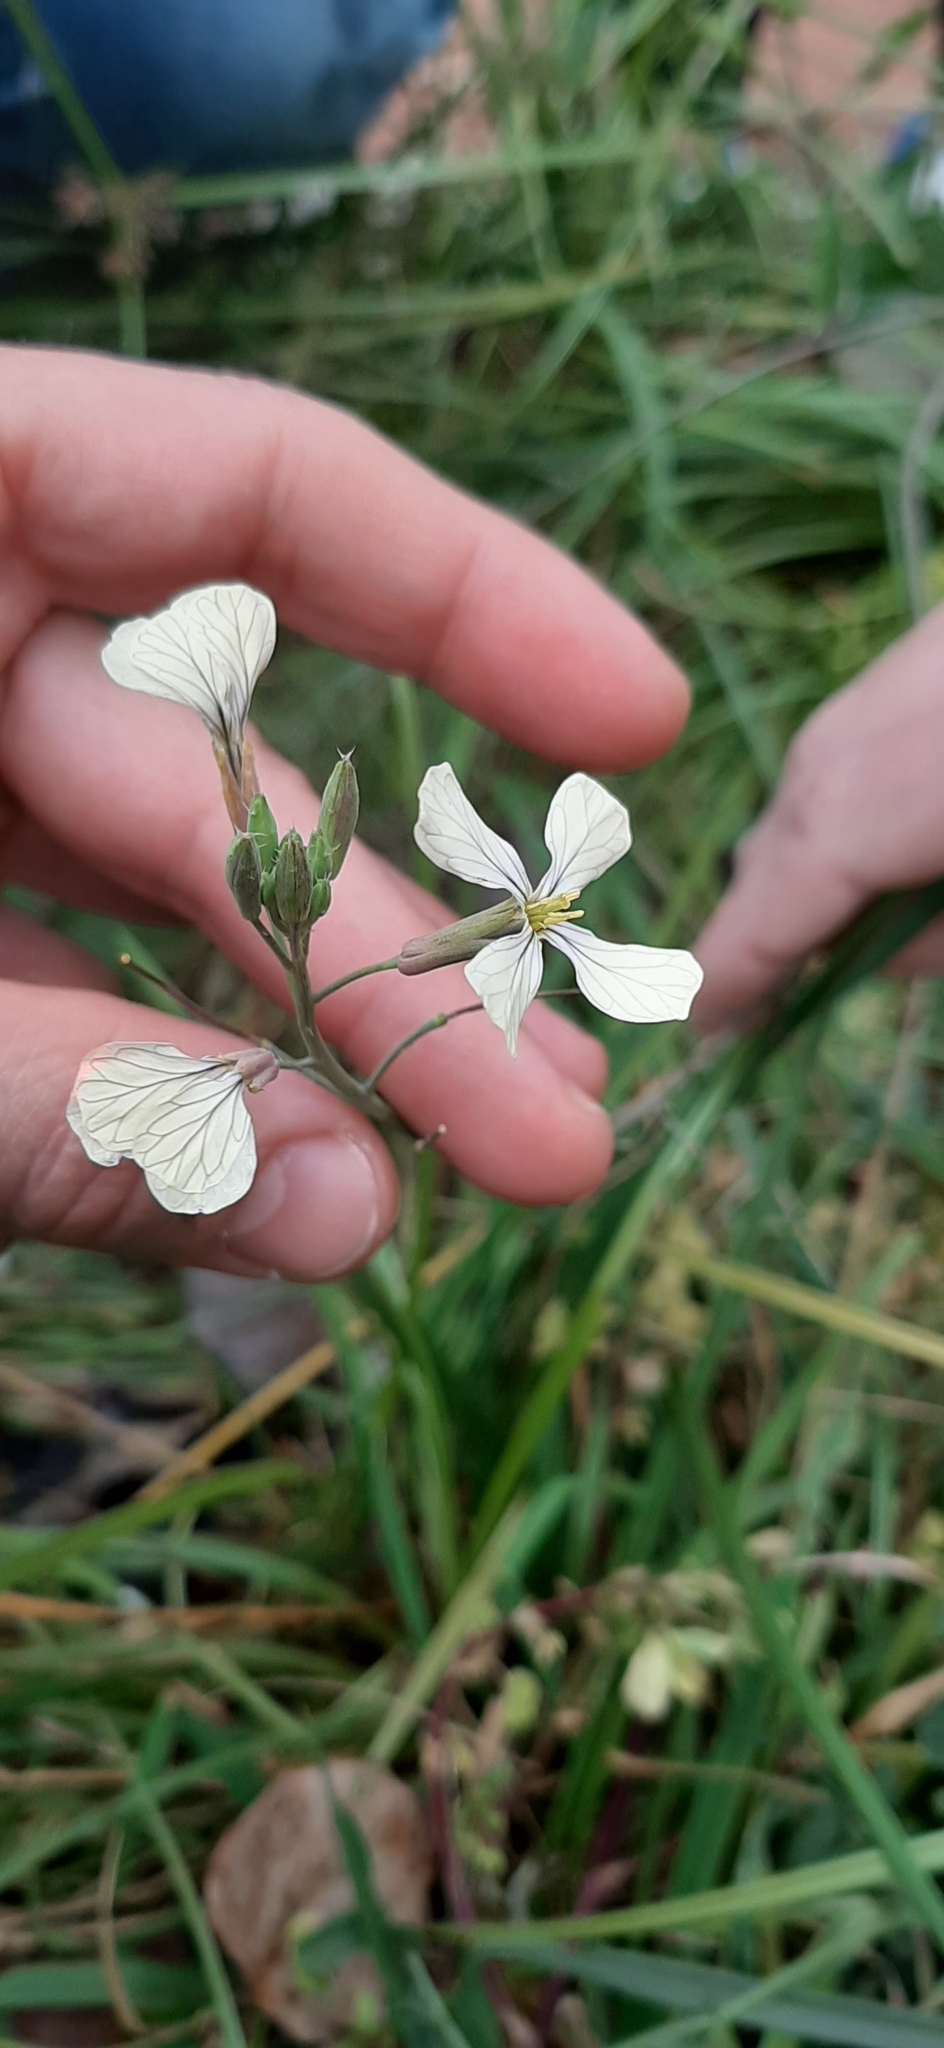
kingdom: Plantae
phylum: Tracheophyta
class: Magnoliopsida
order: Brassicales
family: Brassicaceae
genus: Raphanus
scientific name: Raphanus raphanistrum
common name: Wild radish
